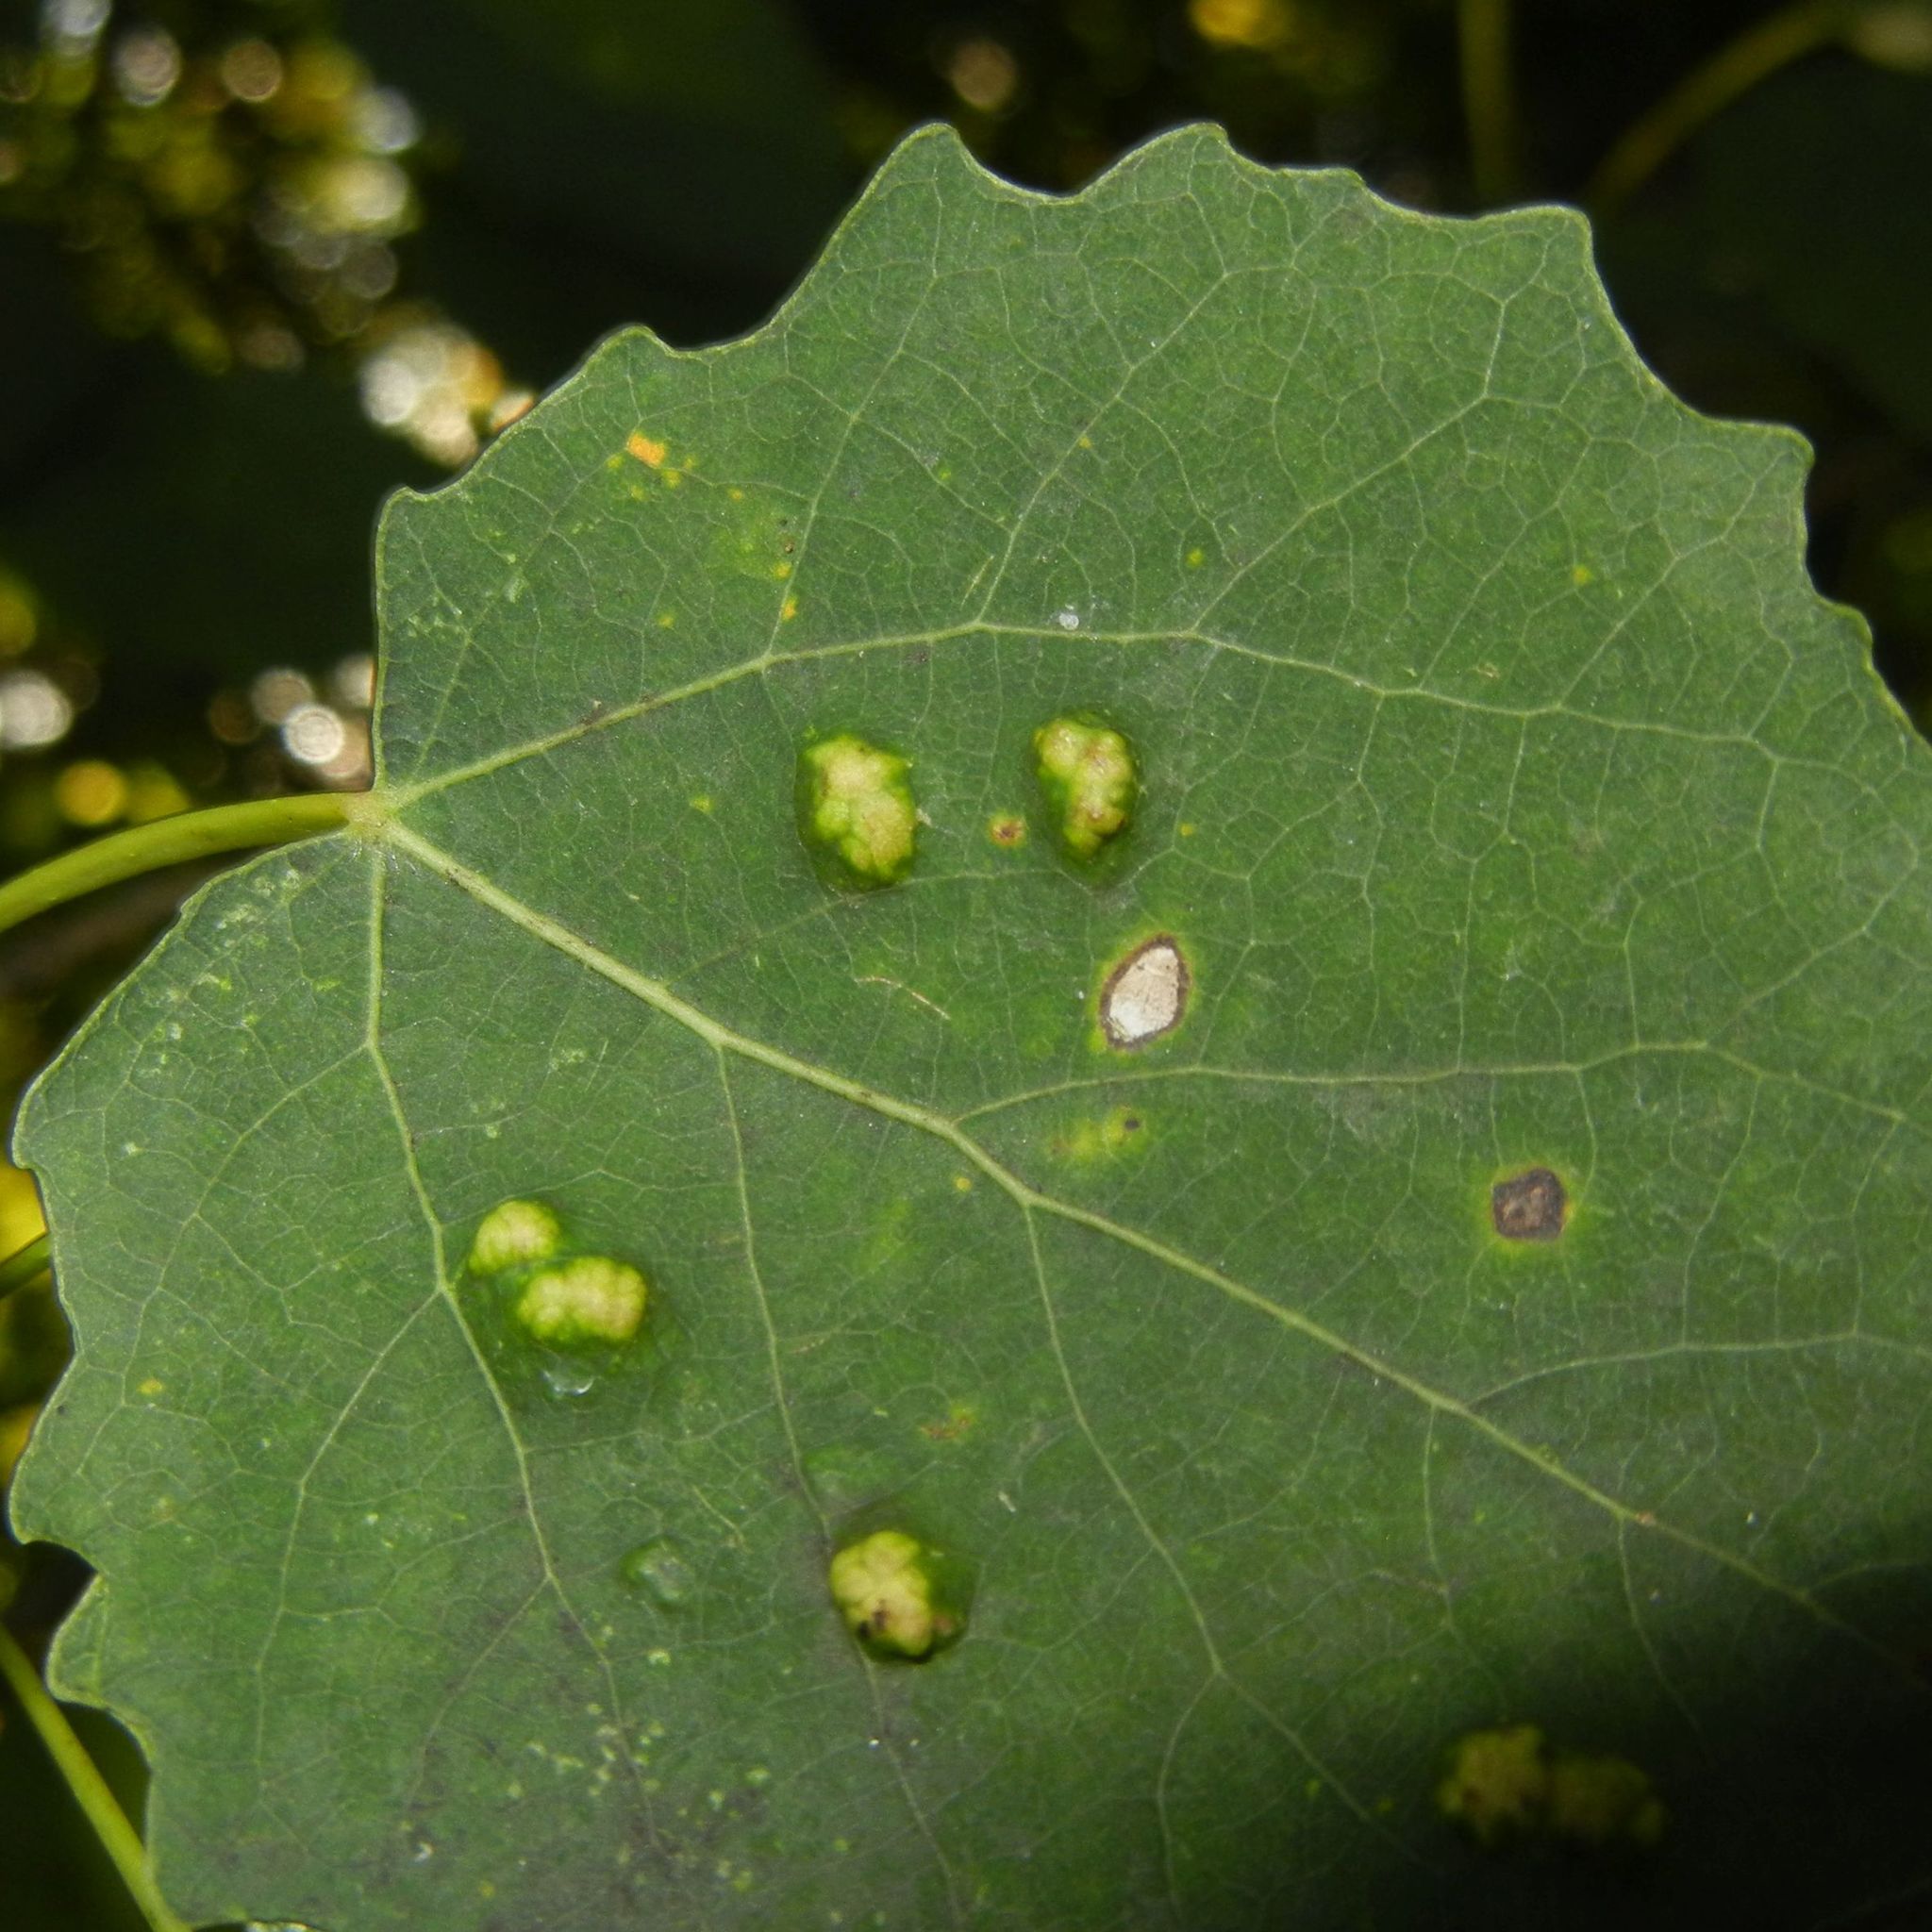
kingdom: Animalia
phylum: Arthropoda
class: Arachnida
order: Trombidiformes
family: Eriophyidae
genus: Phyllocoptes
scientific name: Phyllocoptes populi
